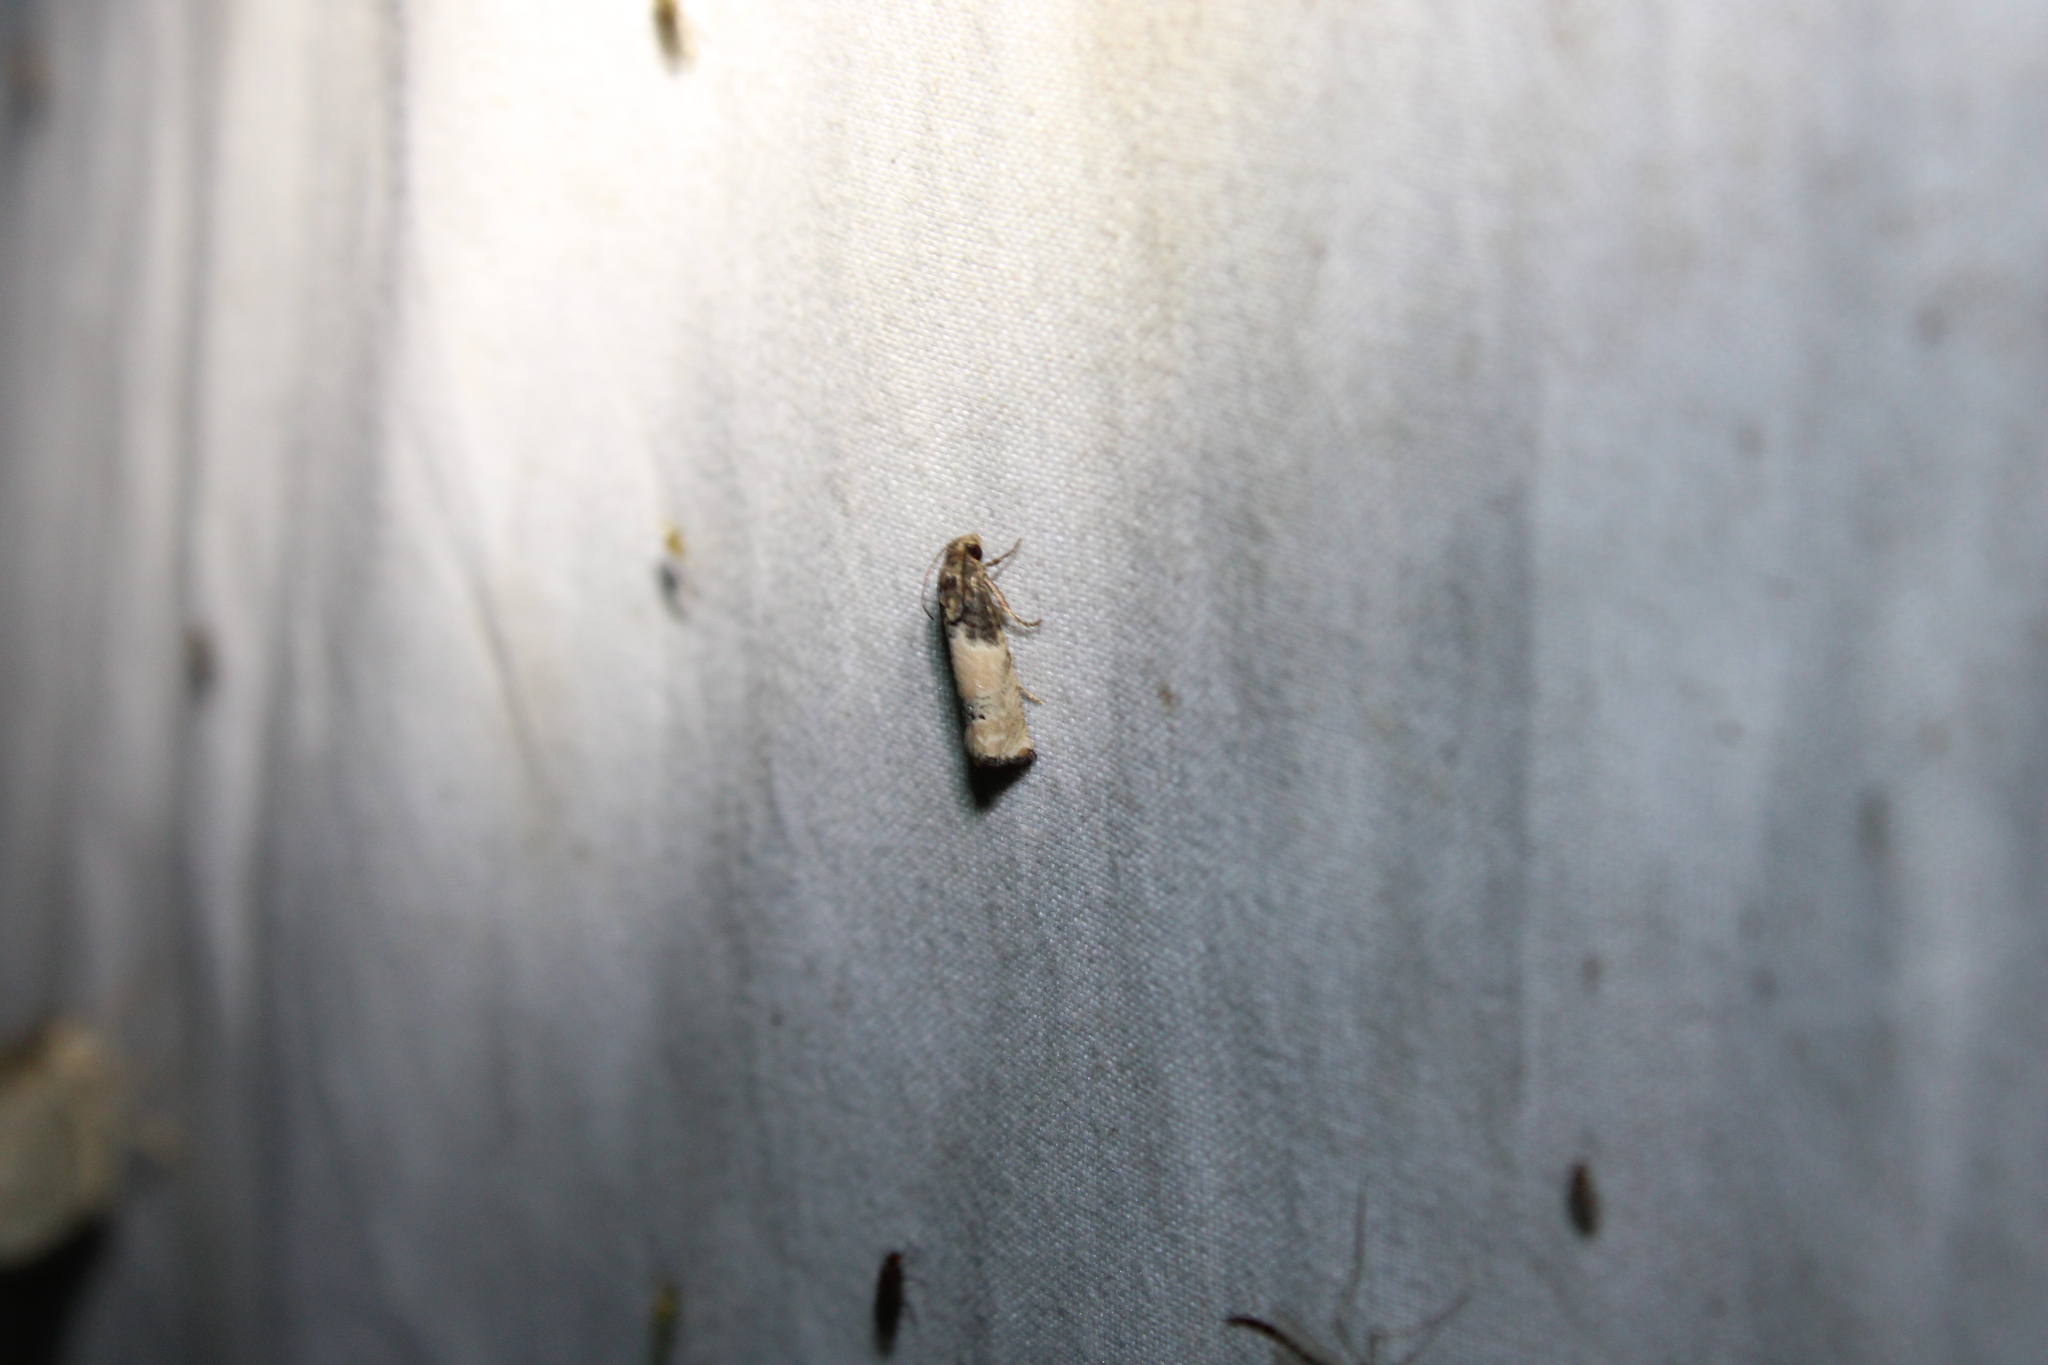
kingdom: Animalia
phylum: Arthropoda
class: Insecta
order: Lepidoptera
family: Tortricidae
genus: Epiblema
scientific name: Epiblema desertana
